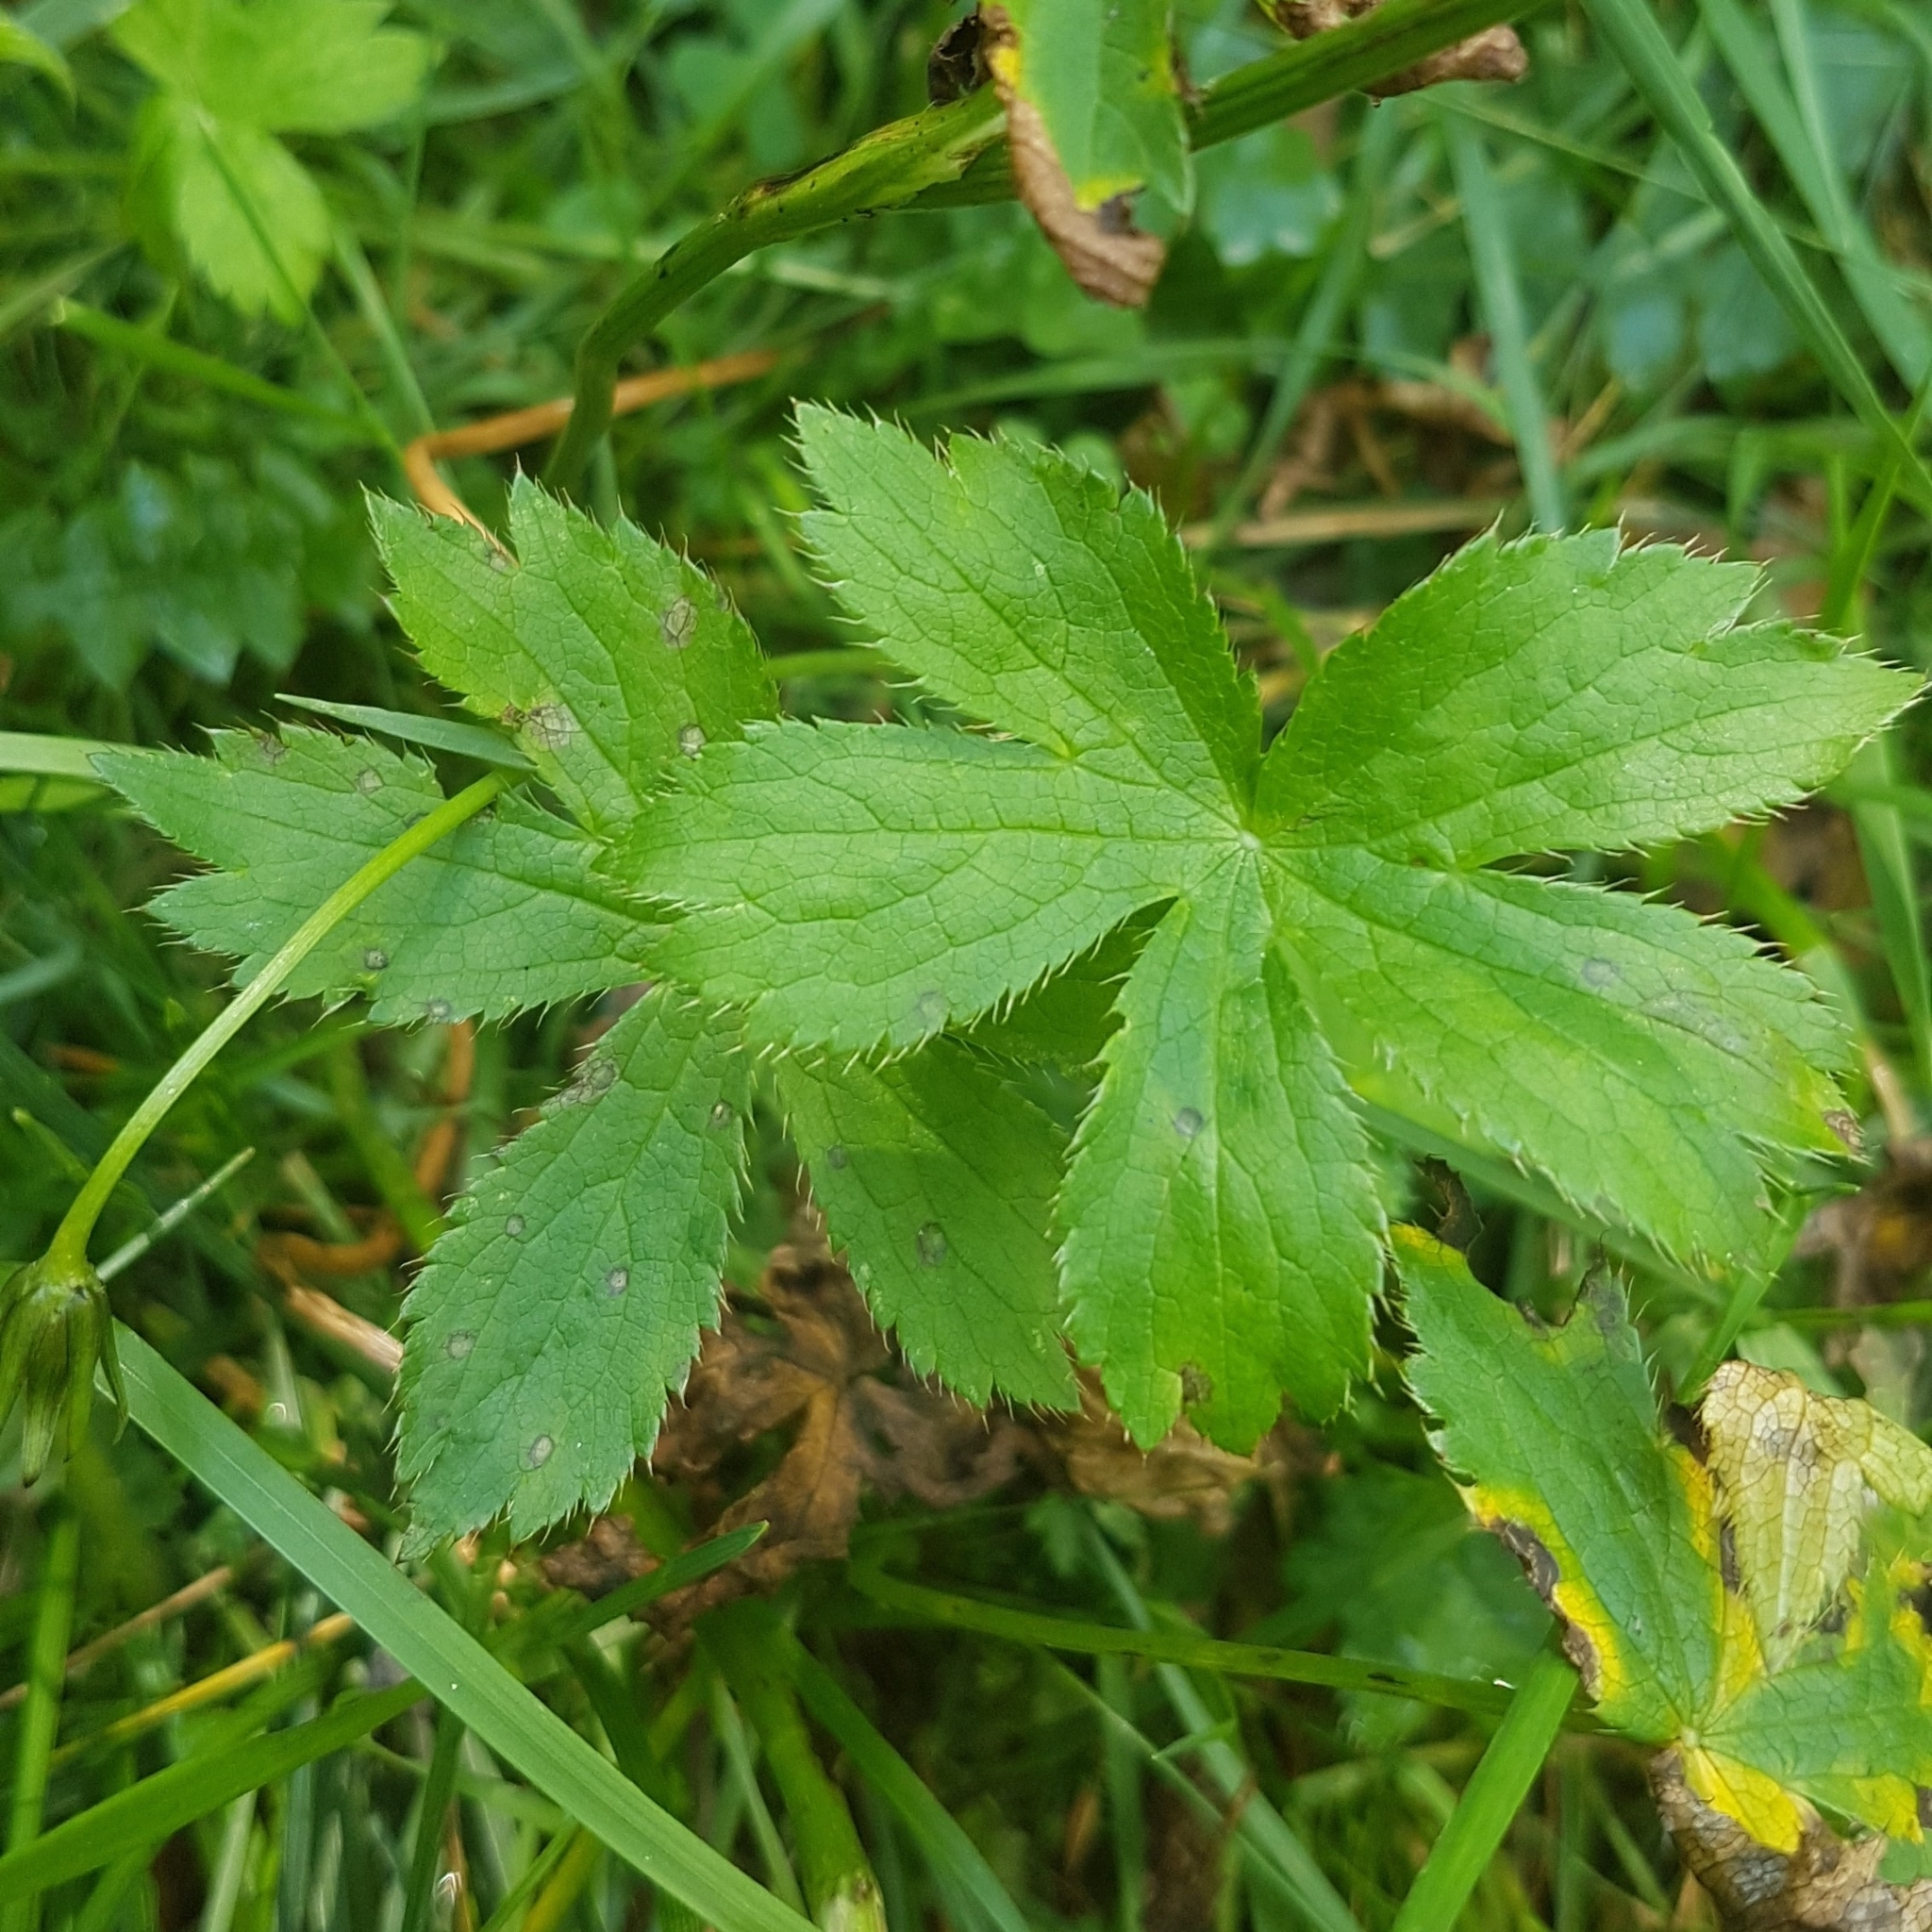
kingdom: Plantae
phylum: Tracheophyta
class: Magnoliopsida
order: Apiales
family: Apiaceae
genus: Astrantia
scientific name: Astrantia major
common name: Greater masterwort
